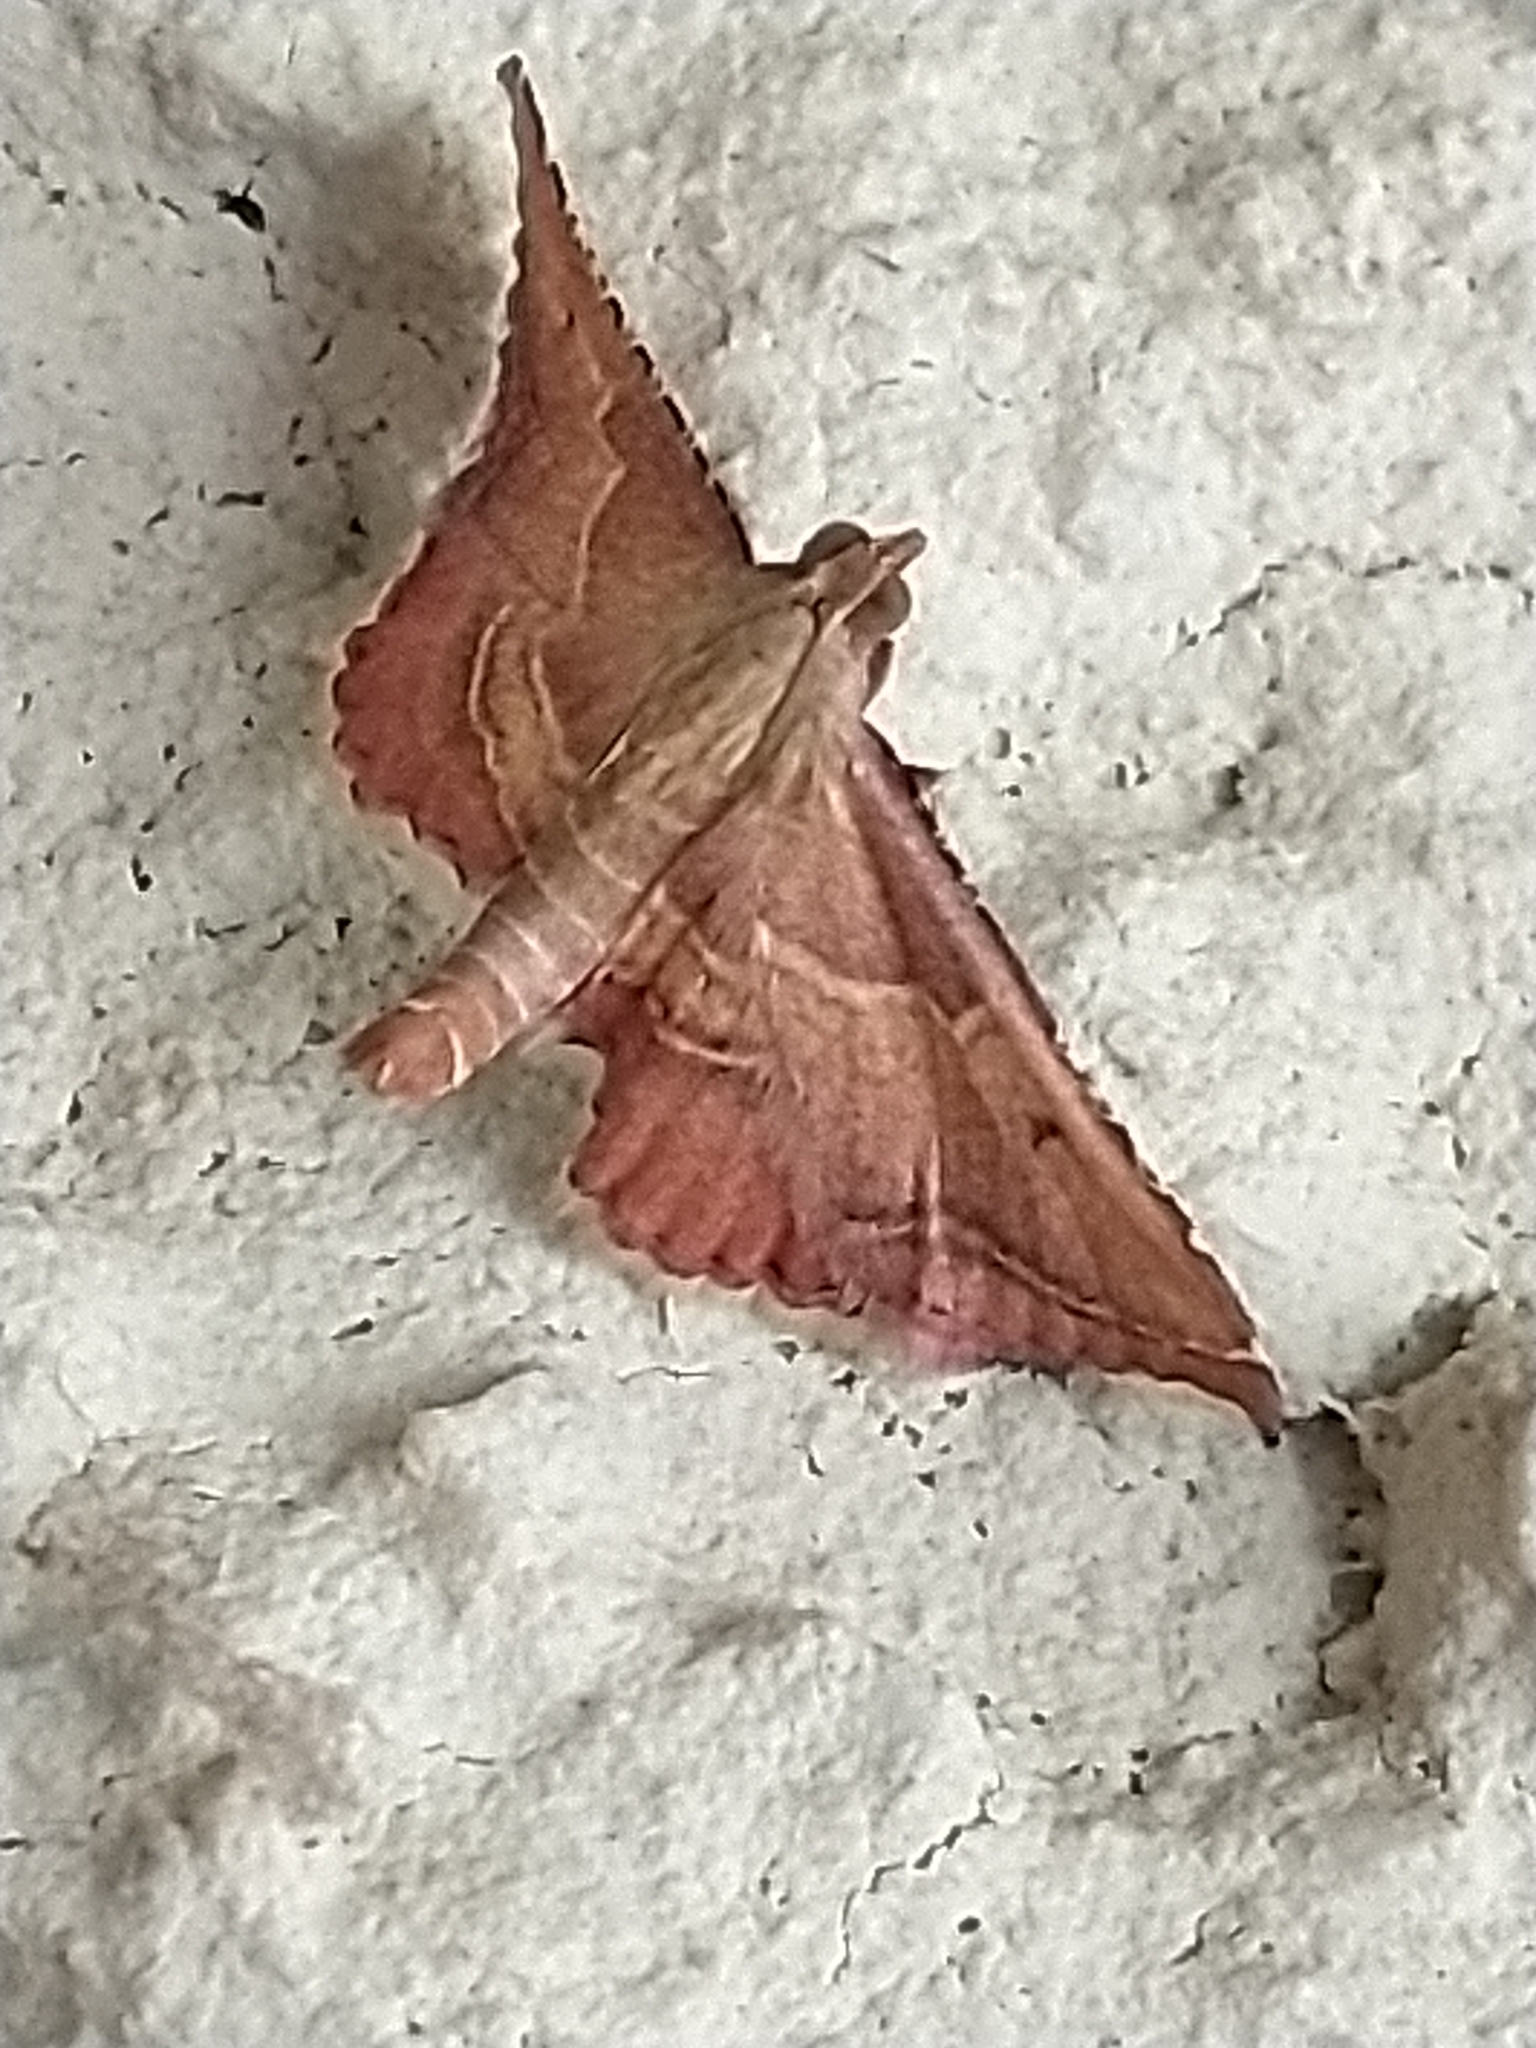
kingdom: Animalia
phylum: Arthropoda
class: Insecta
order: Lepidoptera
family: Pyralidae
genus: Endotricha
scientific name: Endotricha flammealis
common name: Rosy tabby
